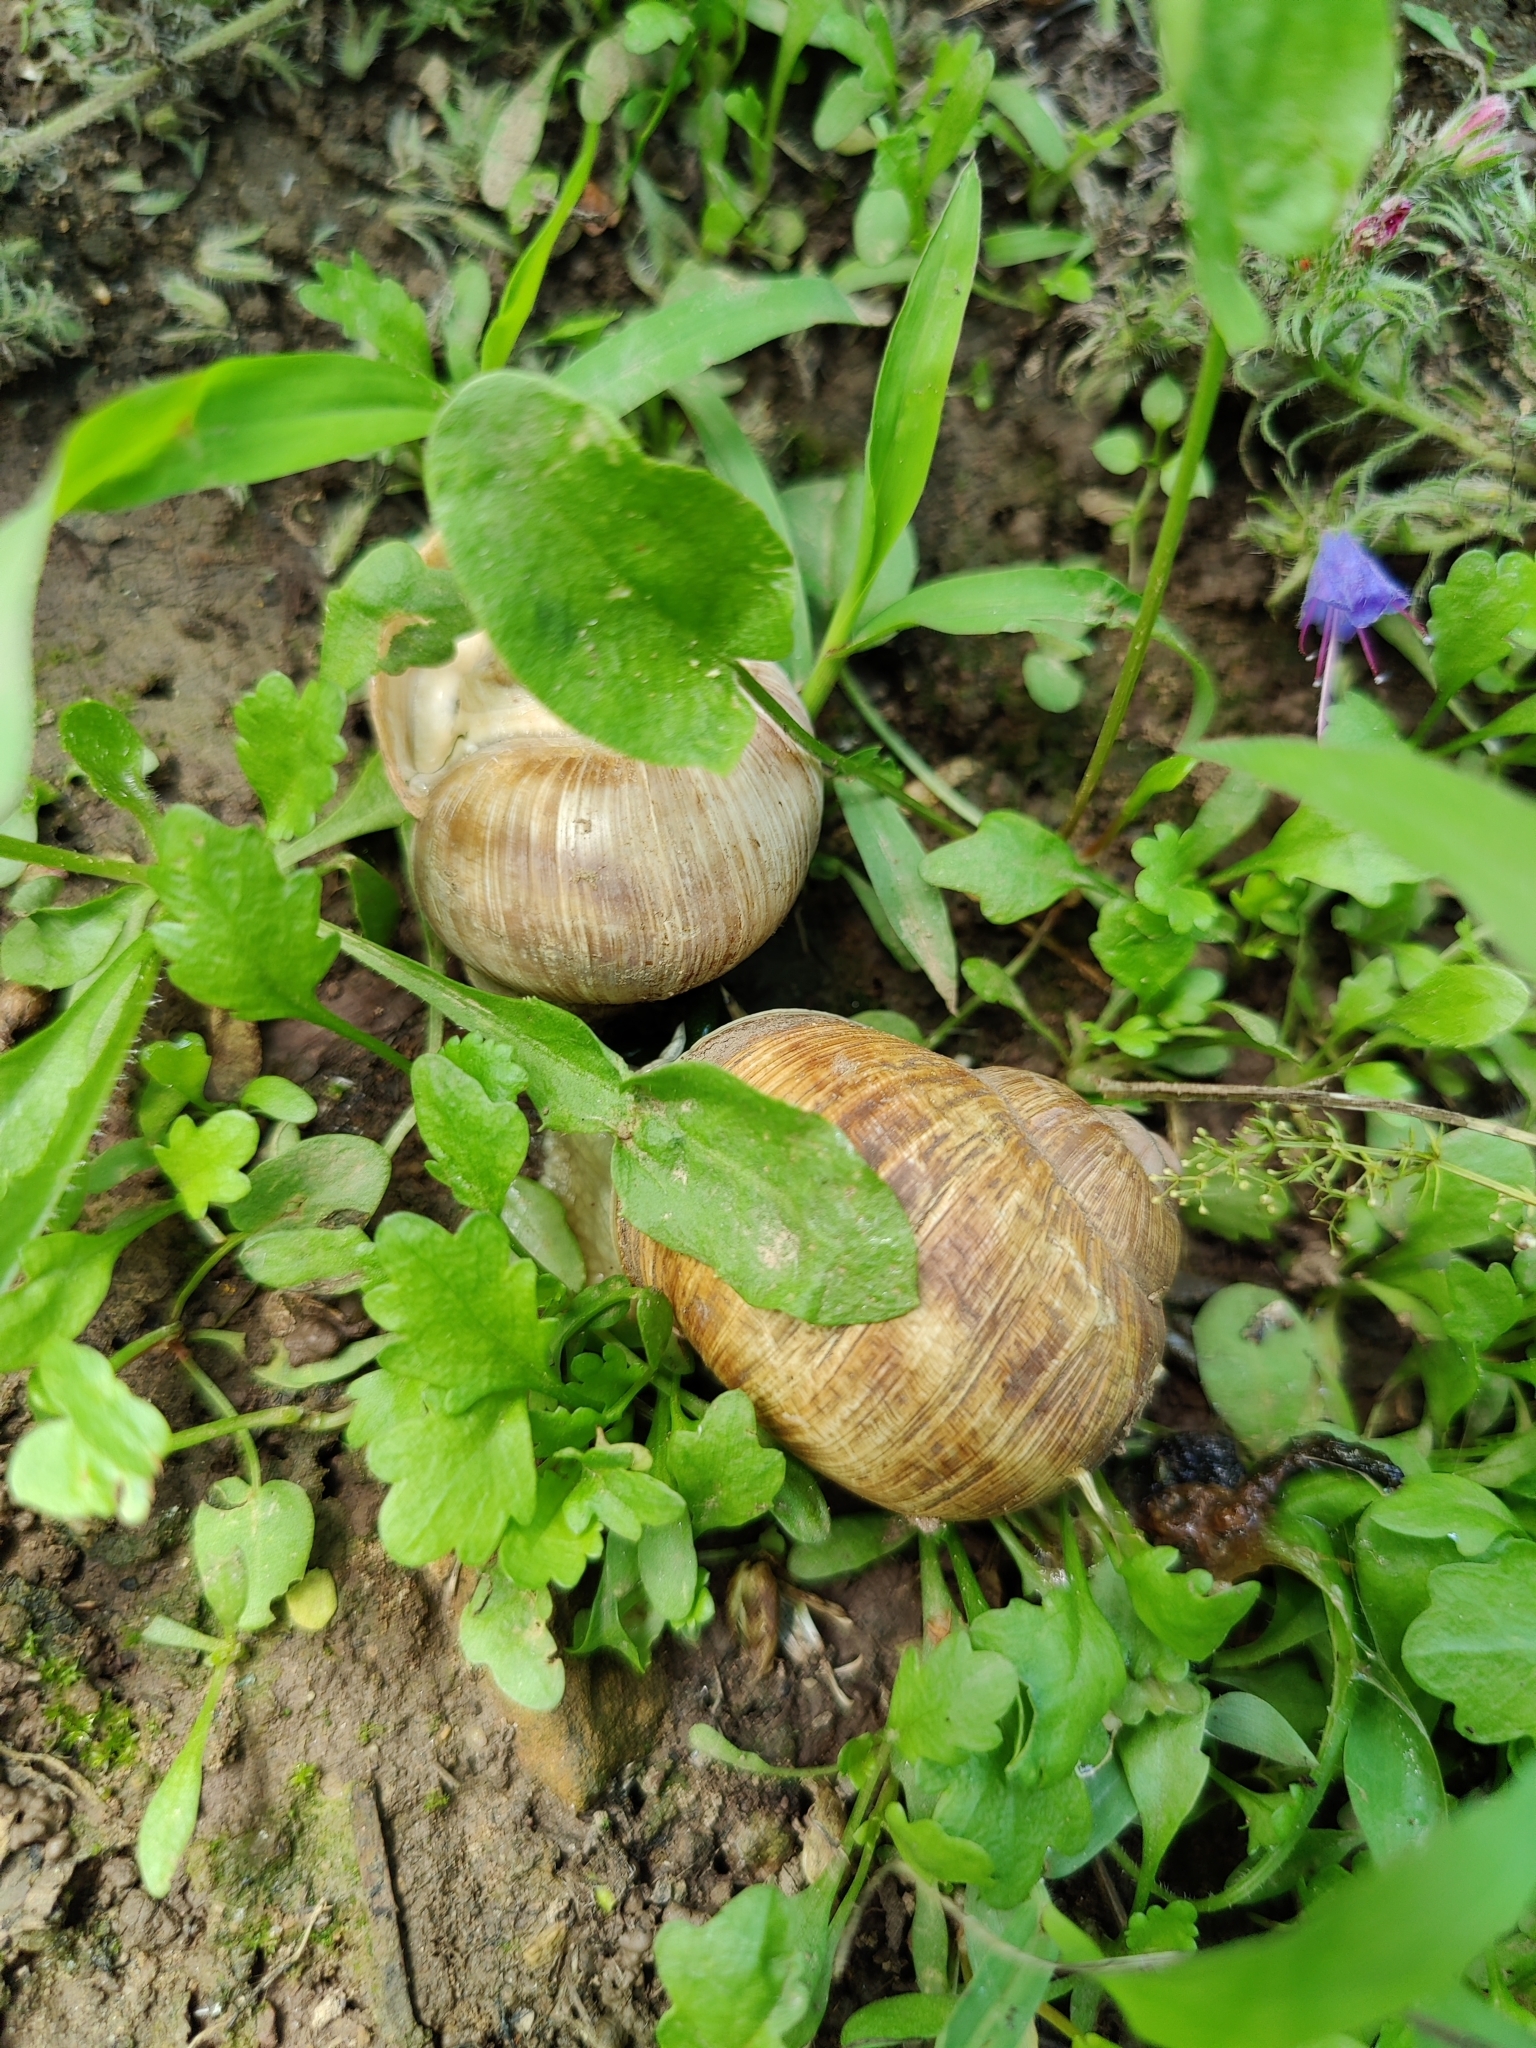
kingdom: Animalia
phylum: Mollusca
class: Gastropoda
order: Stylommatophora
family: Helicidae
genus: Helix
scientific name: Helix pomatia
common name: Roman snail
